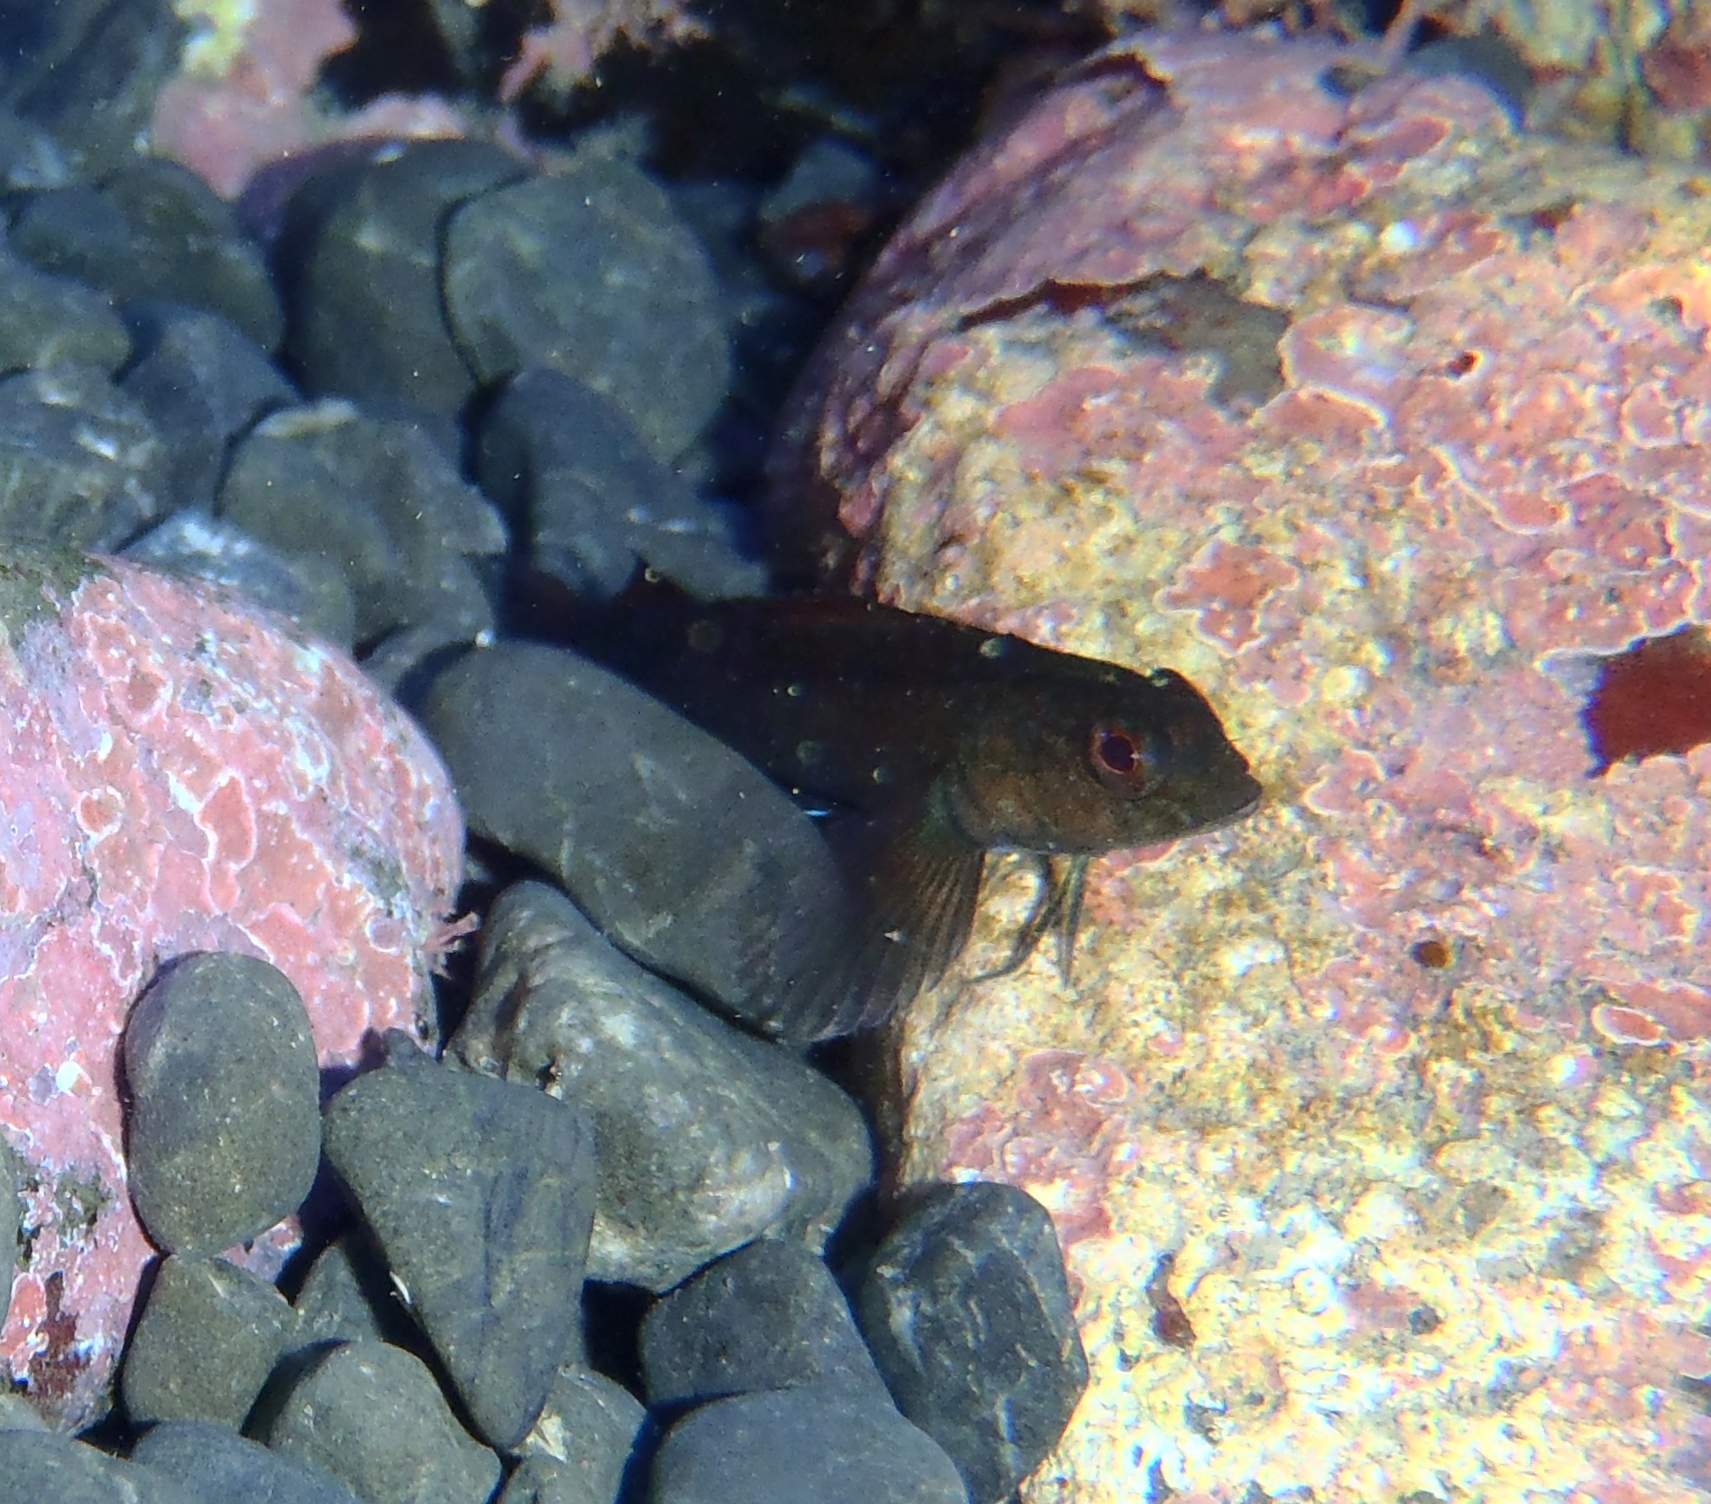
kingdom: Animalia
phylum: Chordata
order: Perciformes
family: Tripterygiidae
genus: Forsterygion
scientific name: Forsterygion lapillum
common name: Common triplefin
